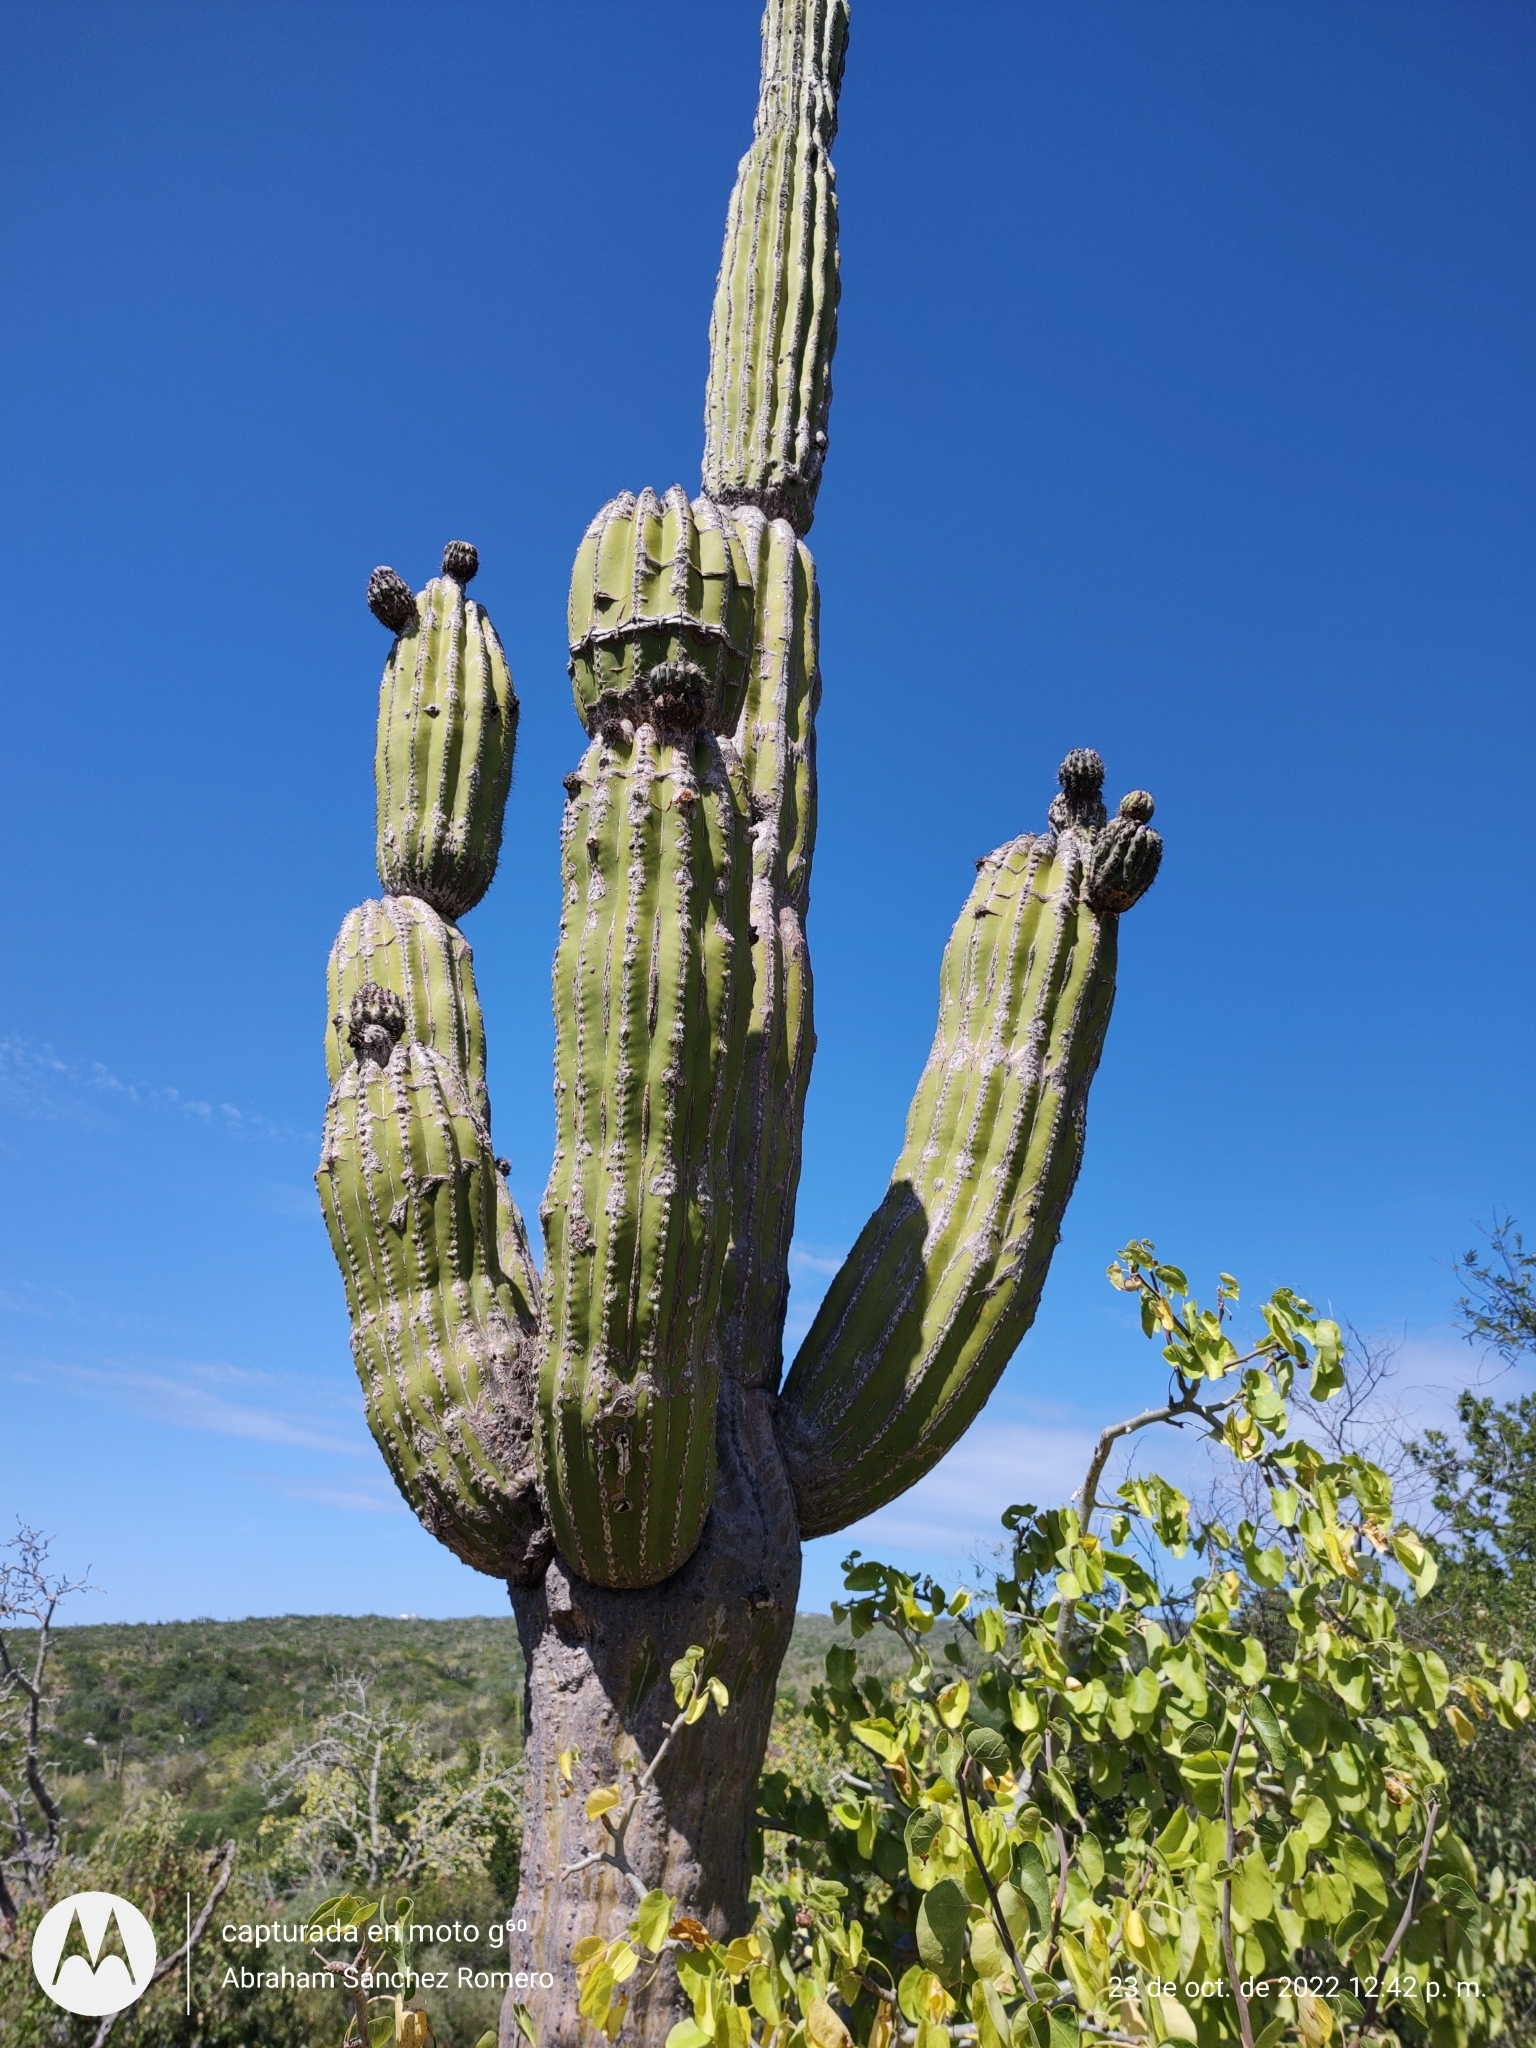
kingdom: Plantae
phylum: Tracheophyta
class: Magnoliopsida
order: Caryophyllales
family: Cactaceae
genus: Pachycereus
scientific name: Pachycereus pringlei
